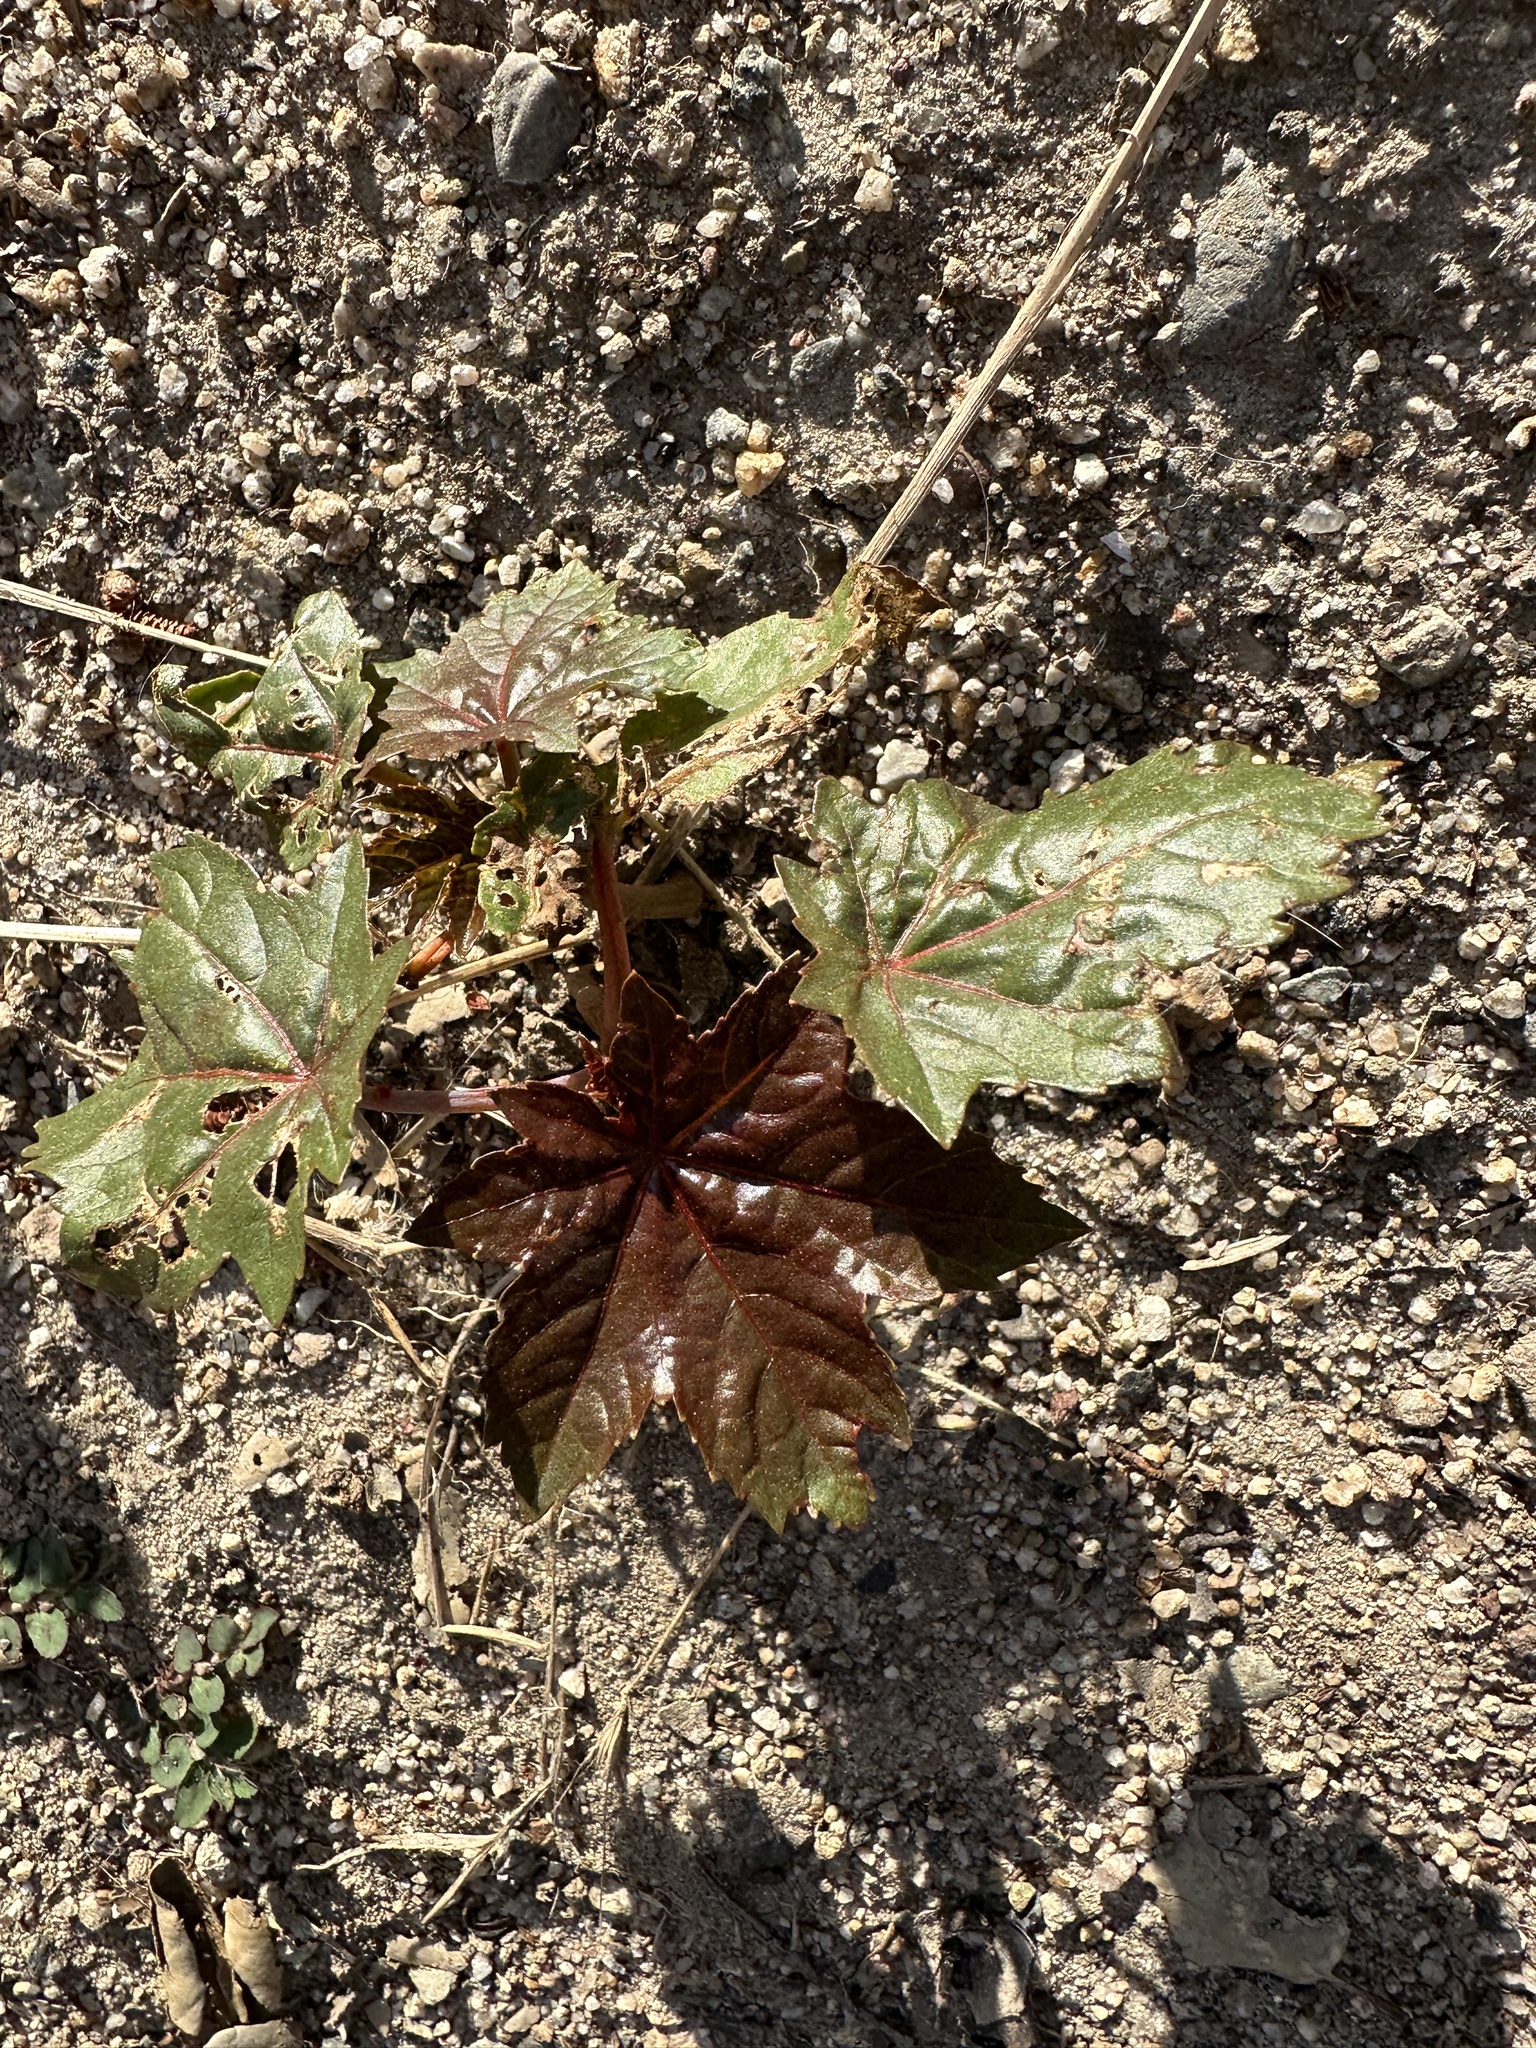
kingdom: Plantae
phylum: Tracheophyta
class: Magnoliopsida
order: Malpighiales
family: Euphorbiaceae
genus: Ricinus
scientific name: Ricinus communis
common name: Castor-oil-plant
